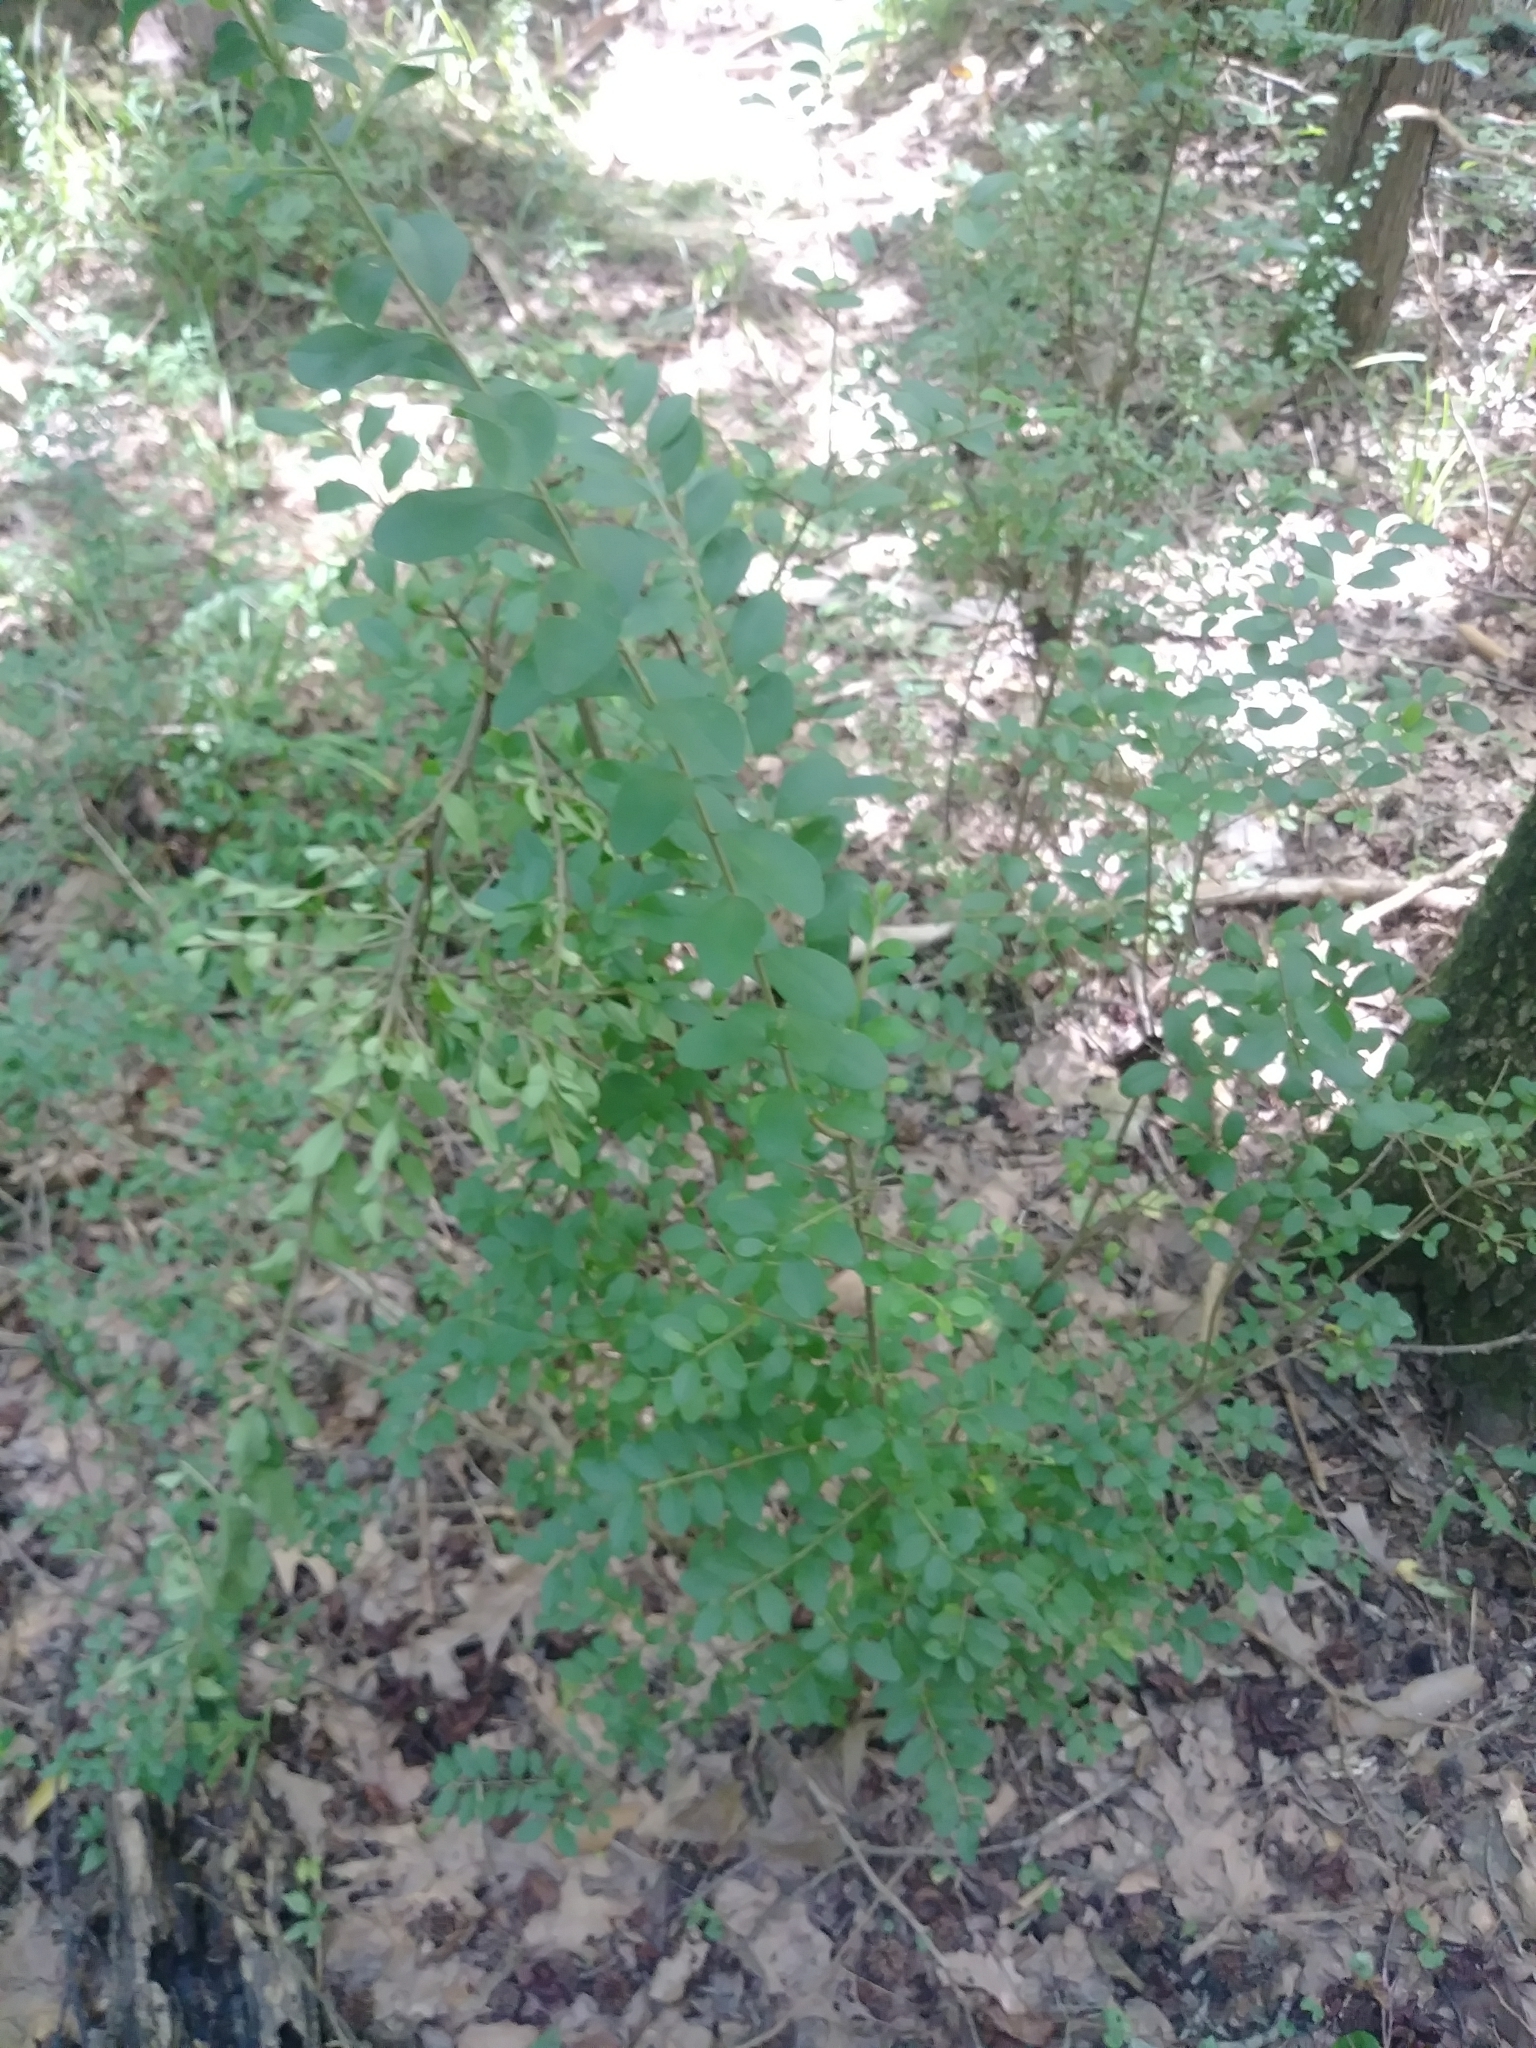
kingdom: Plantae
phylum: Tracheophyta
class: Magnoliopsida
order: Lamiales
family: Oleaceae
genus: Ligustrum
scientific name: Ligustrum sinense
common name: Chinese privet
